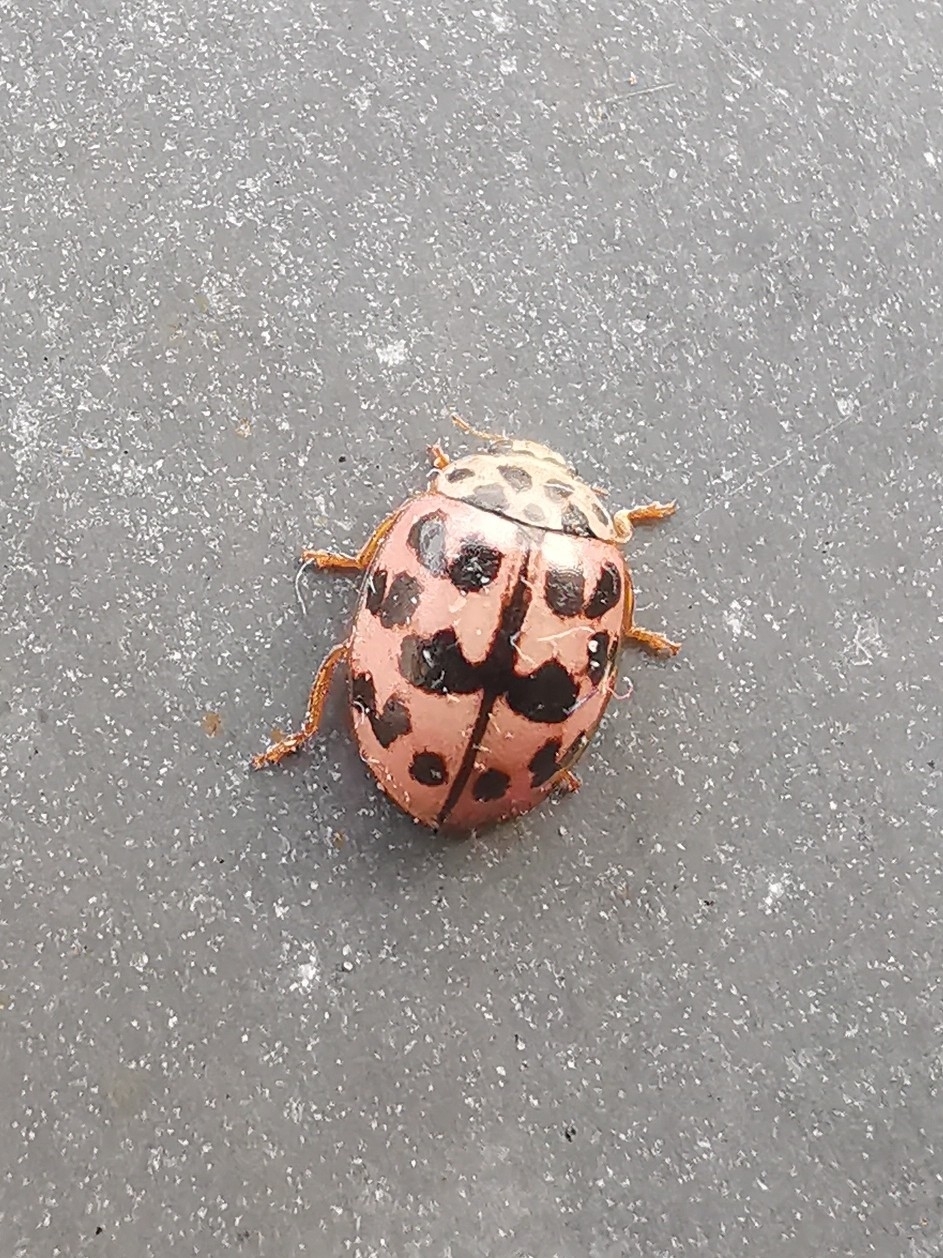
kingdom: Animalia
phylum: Arthropoda
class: Insecta
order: Coleoptera
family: Coccinellidae
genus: Oenopia
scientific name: Oenopia conglobata
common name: Ladybird beetle
